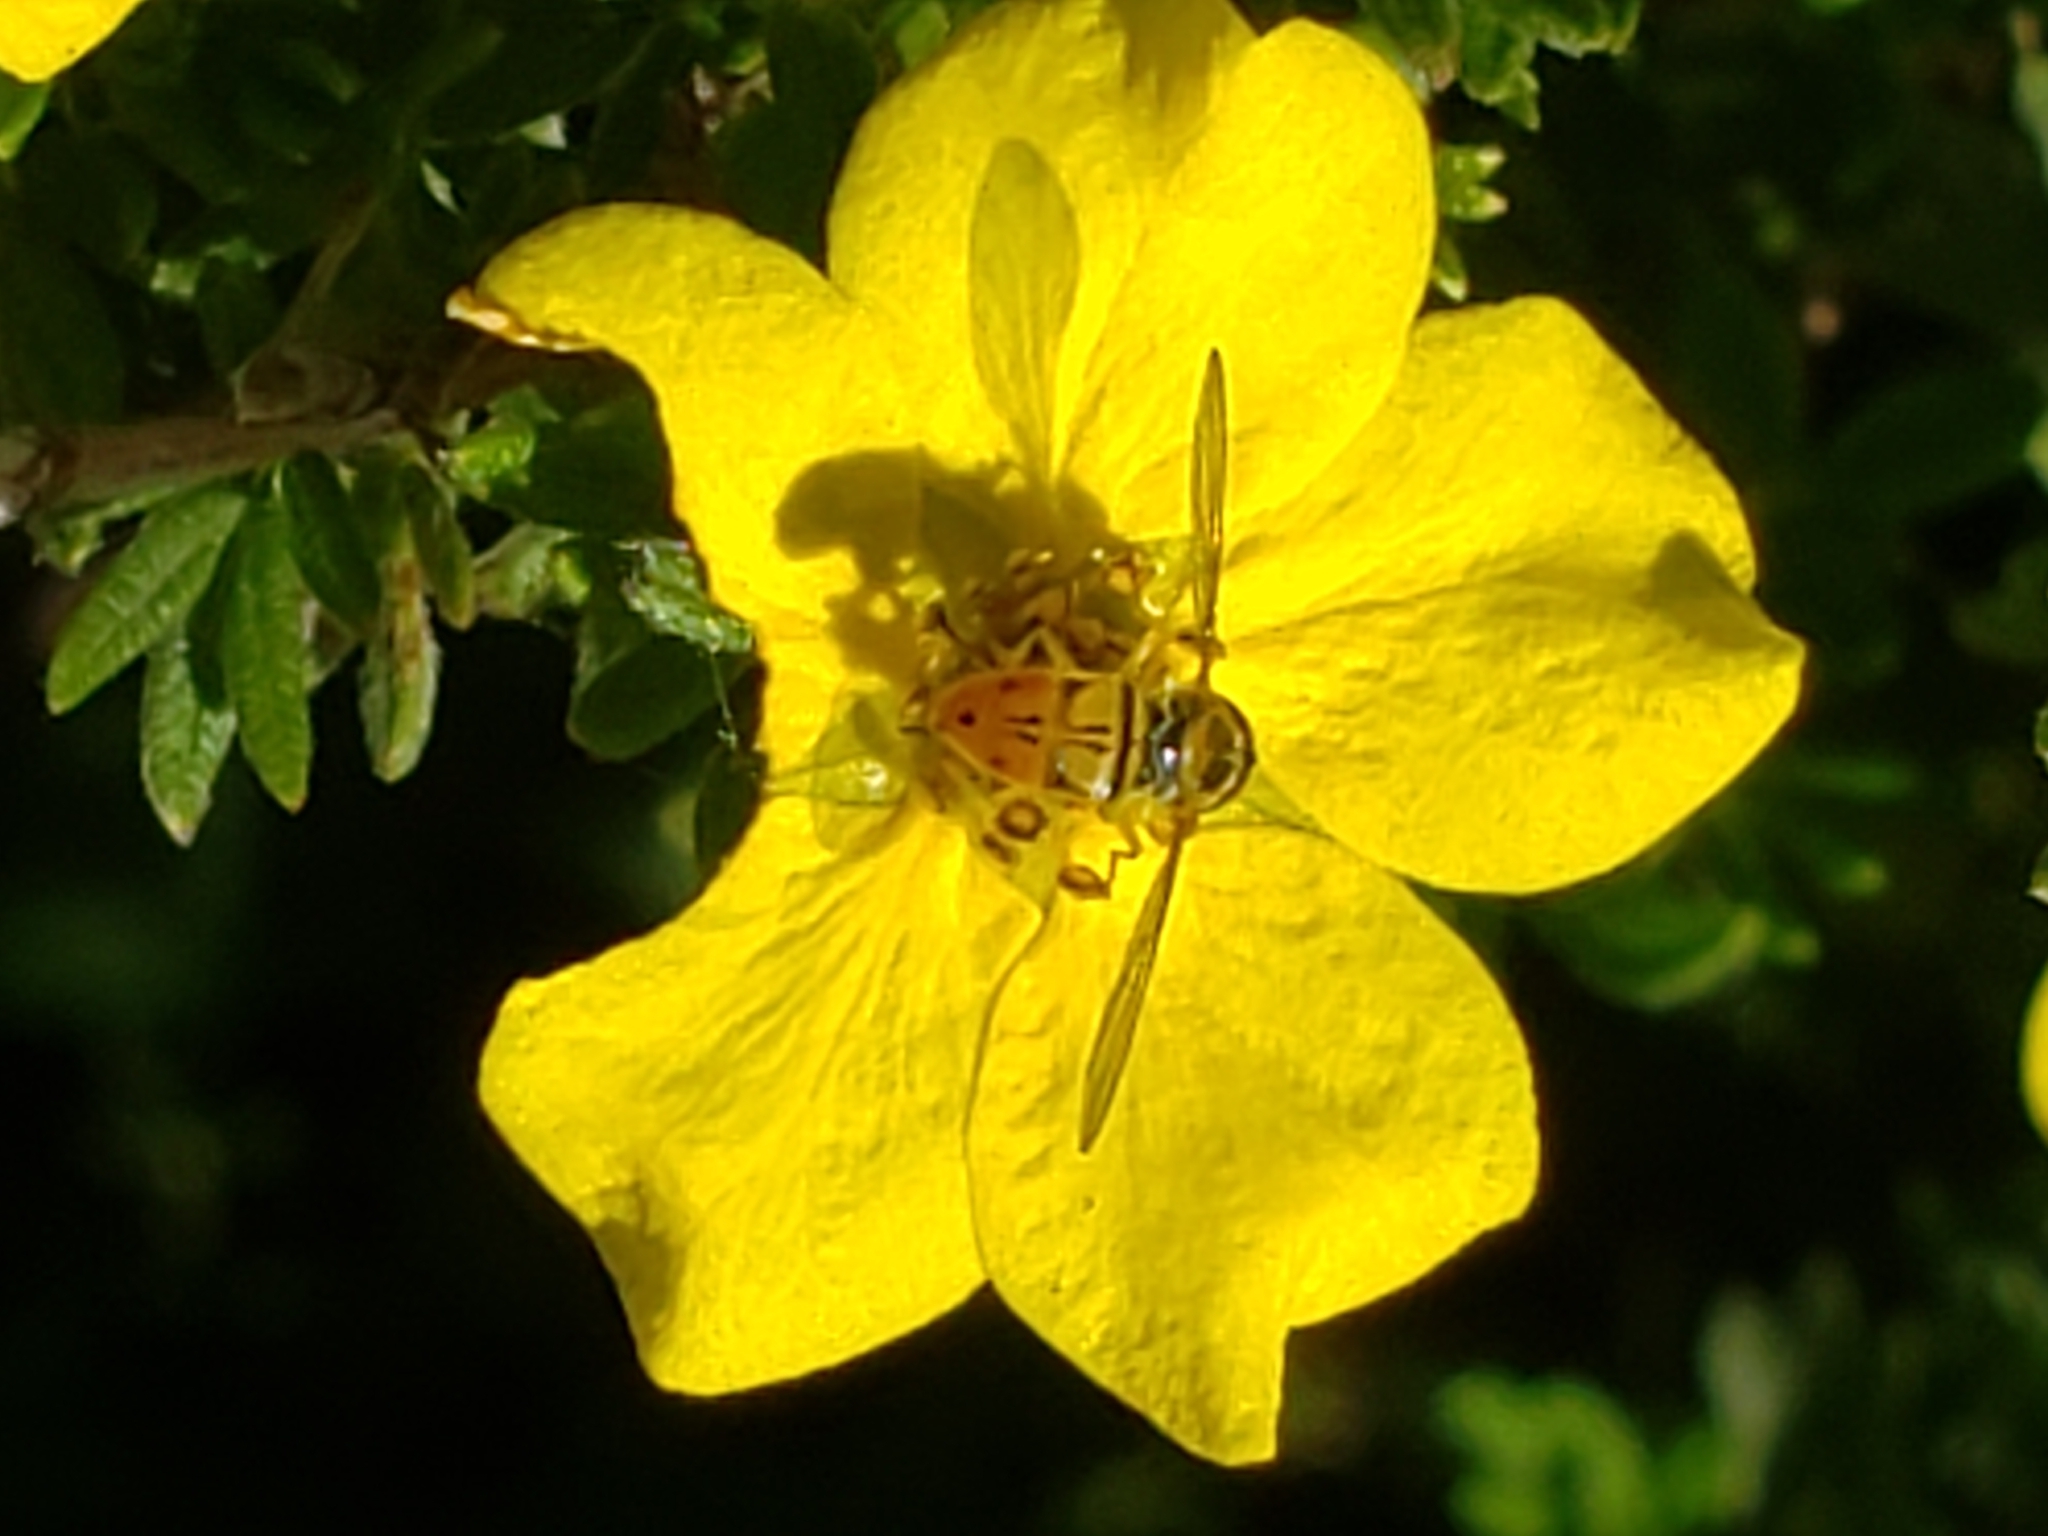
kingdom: Animalia
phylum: Arthropoda
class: Insecta
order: Diptera
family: Syrphidae
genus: Toxomerus
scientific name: Toxomerus marginatus
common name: Syrphid fly
